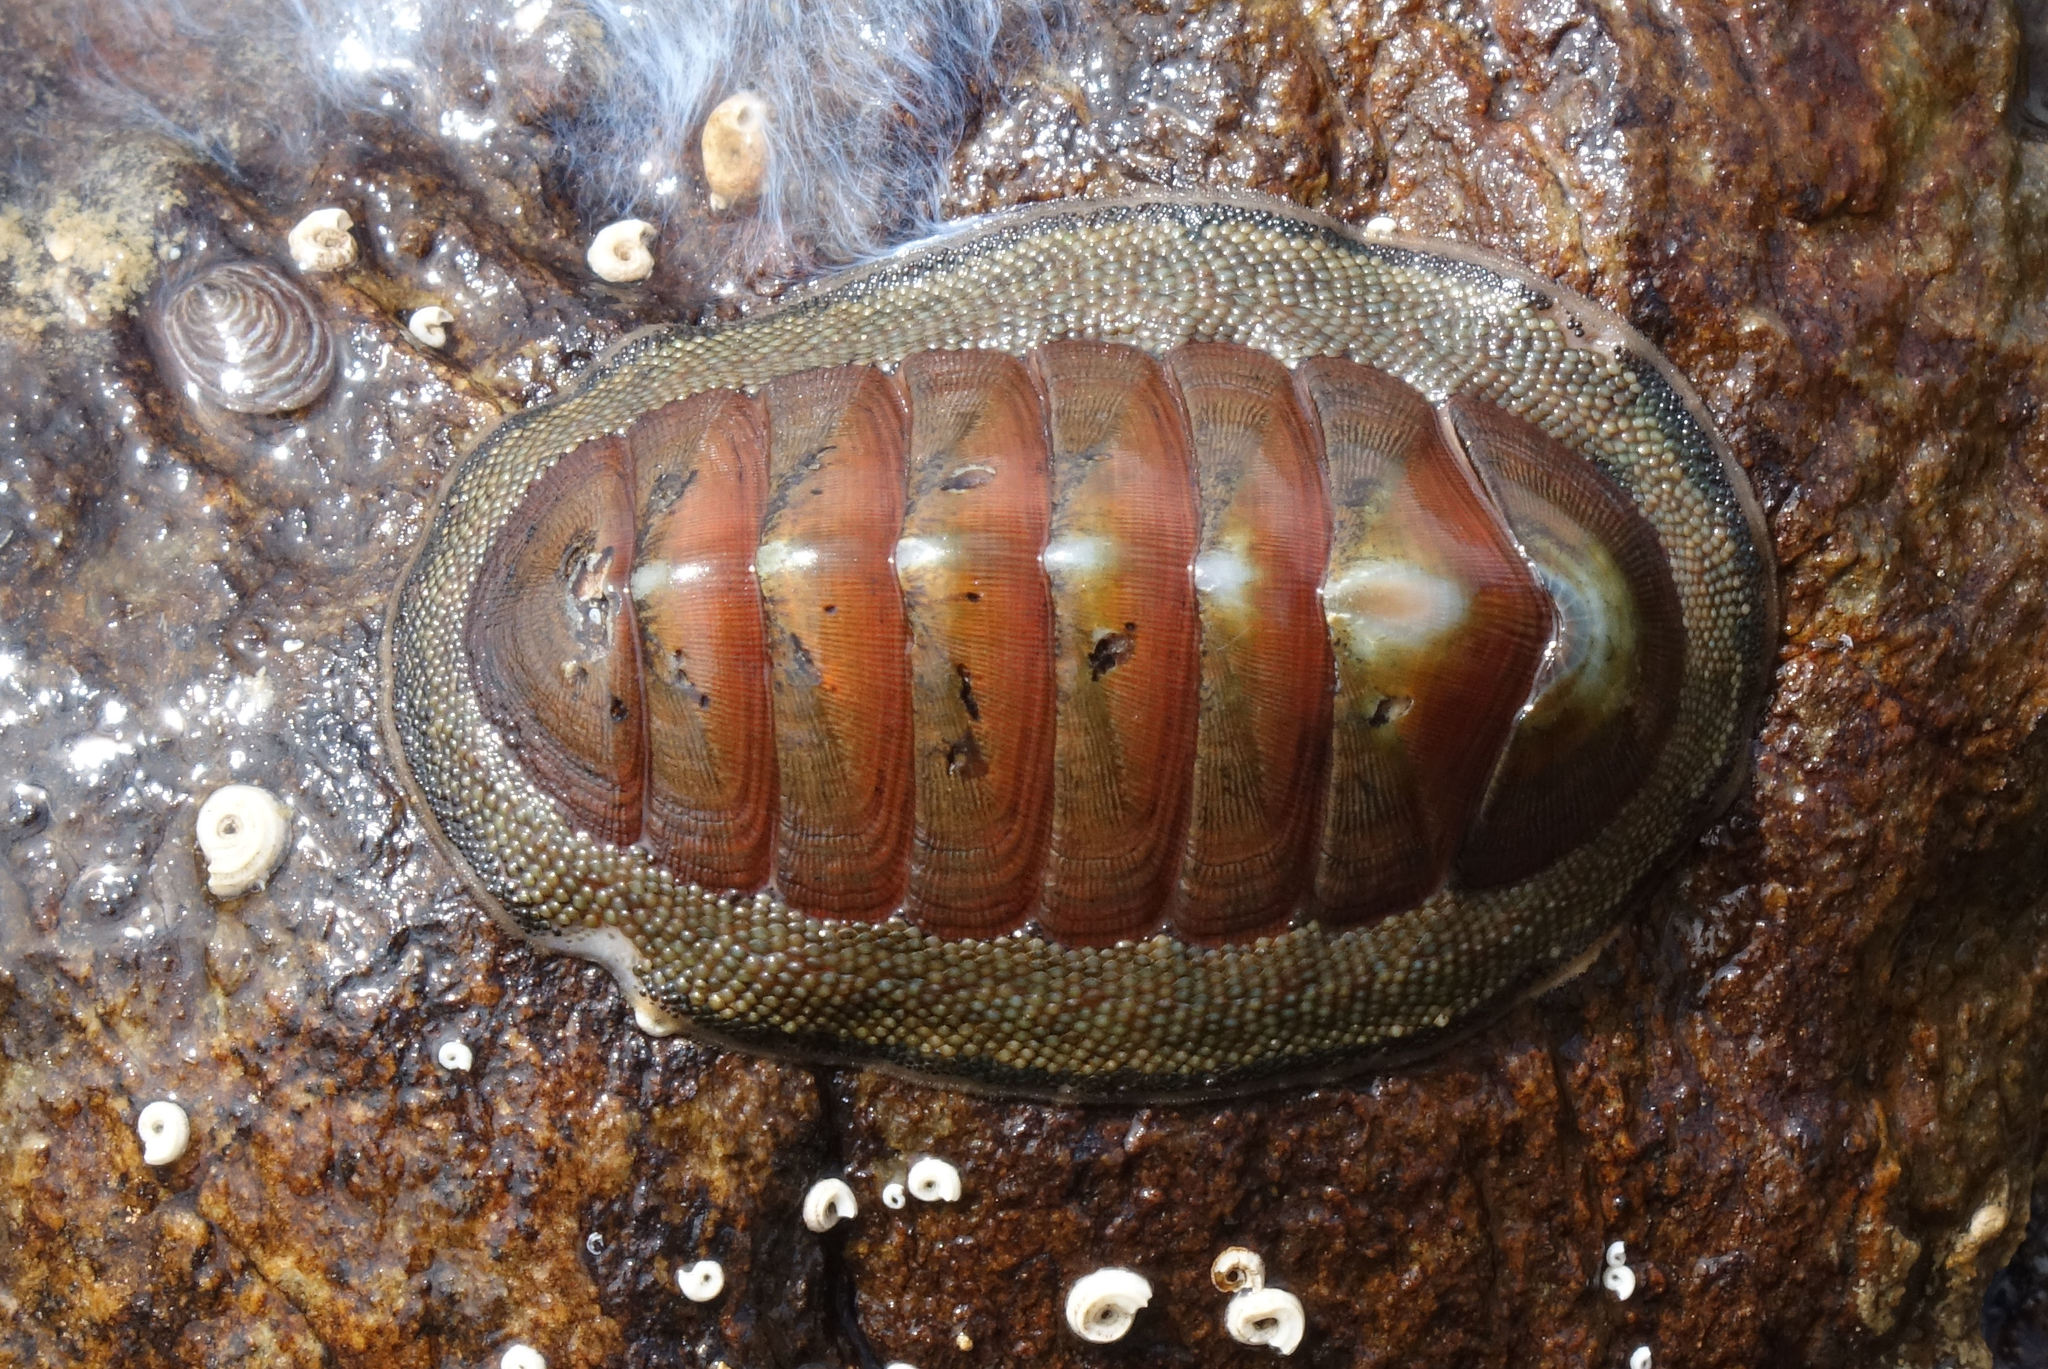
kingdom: Animalia
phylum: Mollusca
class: Polyplacophora
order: Chitonida
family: Chitonidae
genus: Chiton
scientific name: Chiton glaucus
